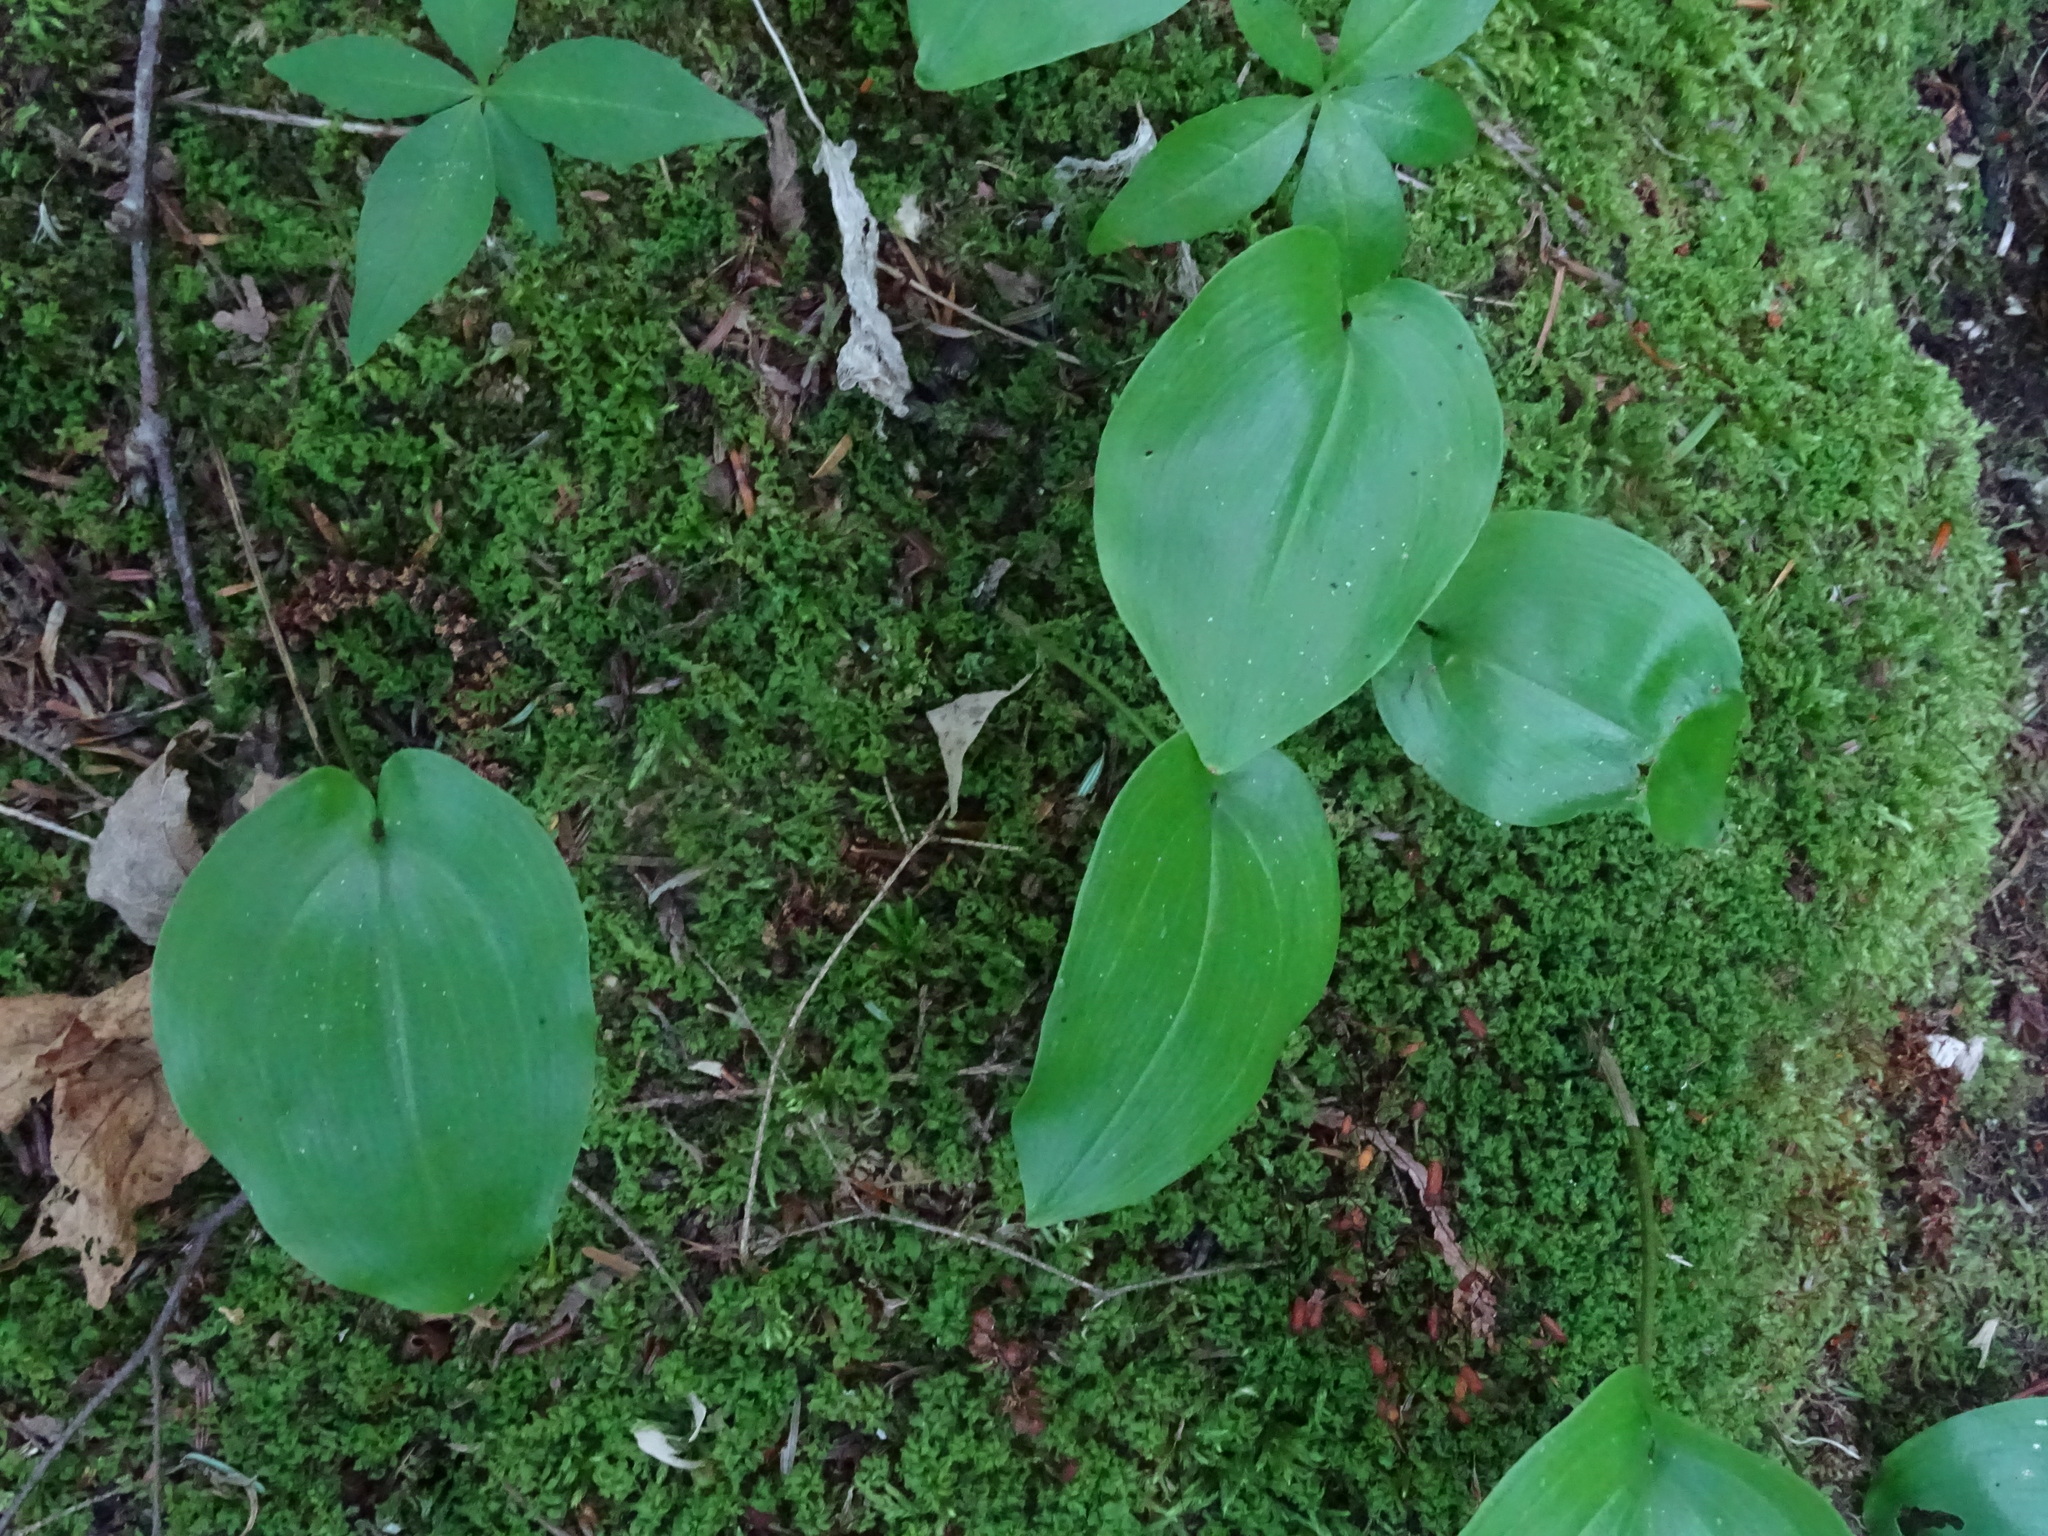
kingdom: Plantae
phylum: Tracheophyta
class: Liliopsida
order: Asparagales
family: Asparagaceae
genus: Maianthemum
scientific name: Maianthemum canadense
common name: False lily-of-the-valley
